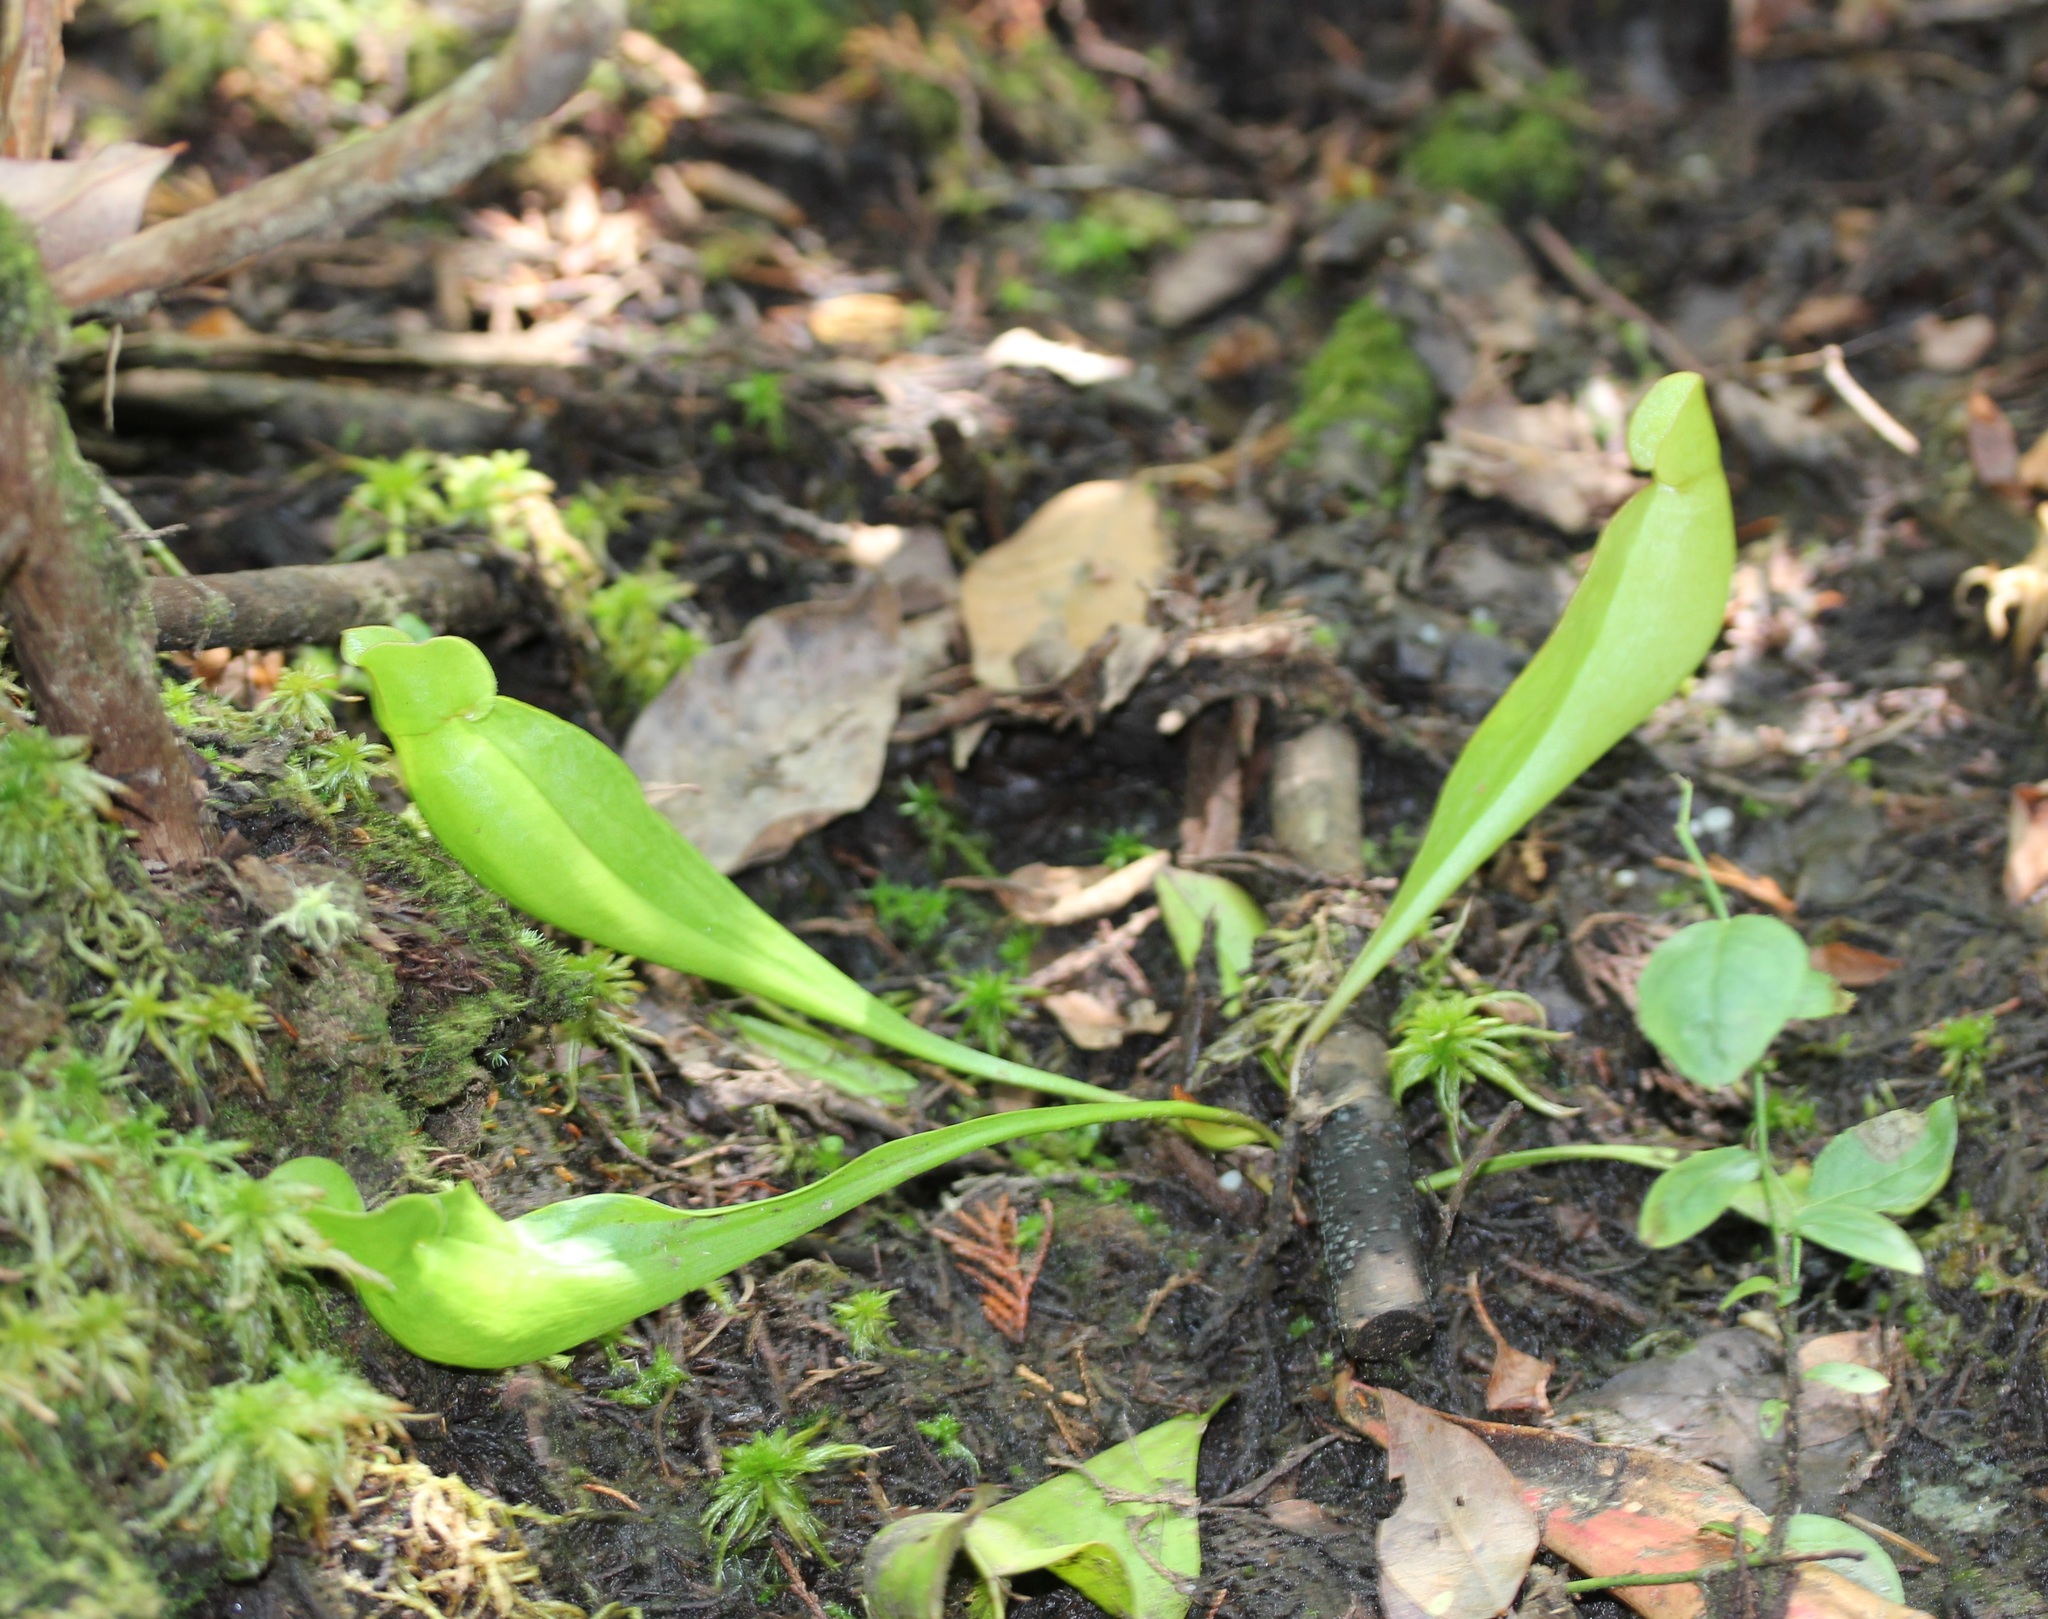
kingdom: Plantae
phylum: Tracheophyta
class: Magnoliopsida
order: Ericales
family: Sarraceniaceae
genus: Sarracenia
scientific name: Sarracenia purpurea
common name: Pitcherplant
